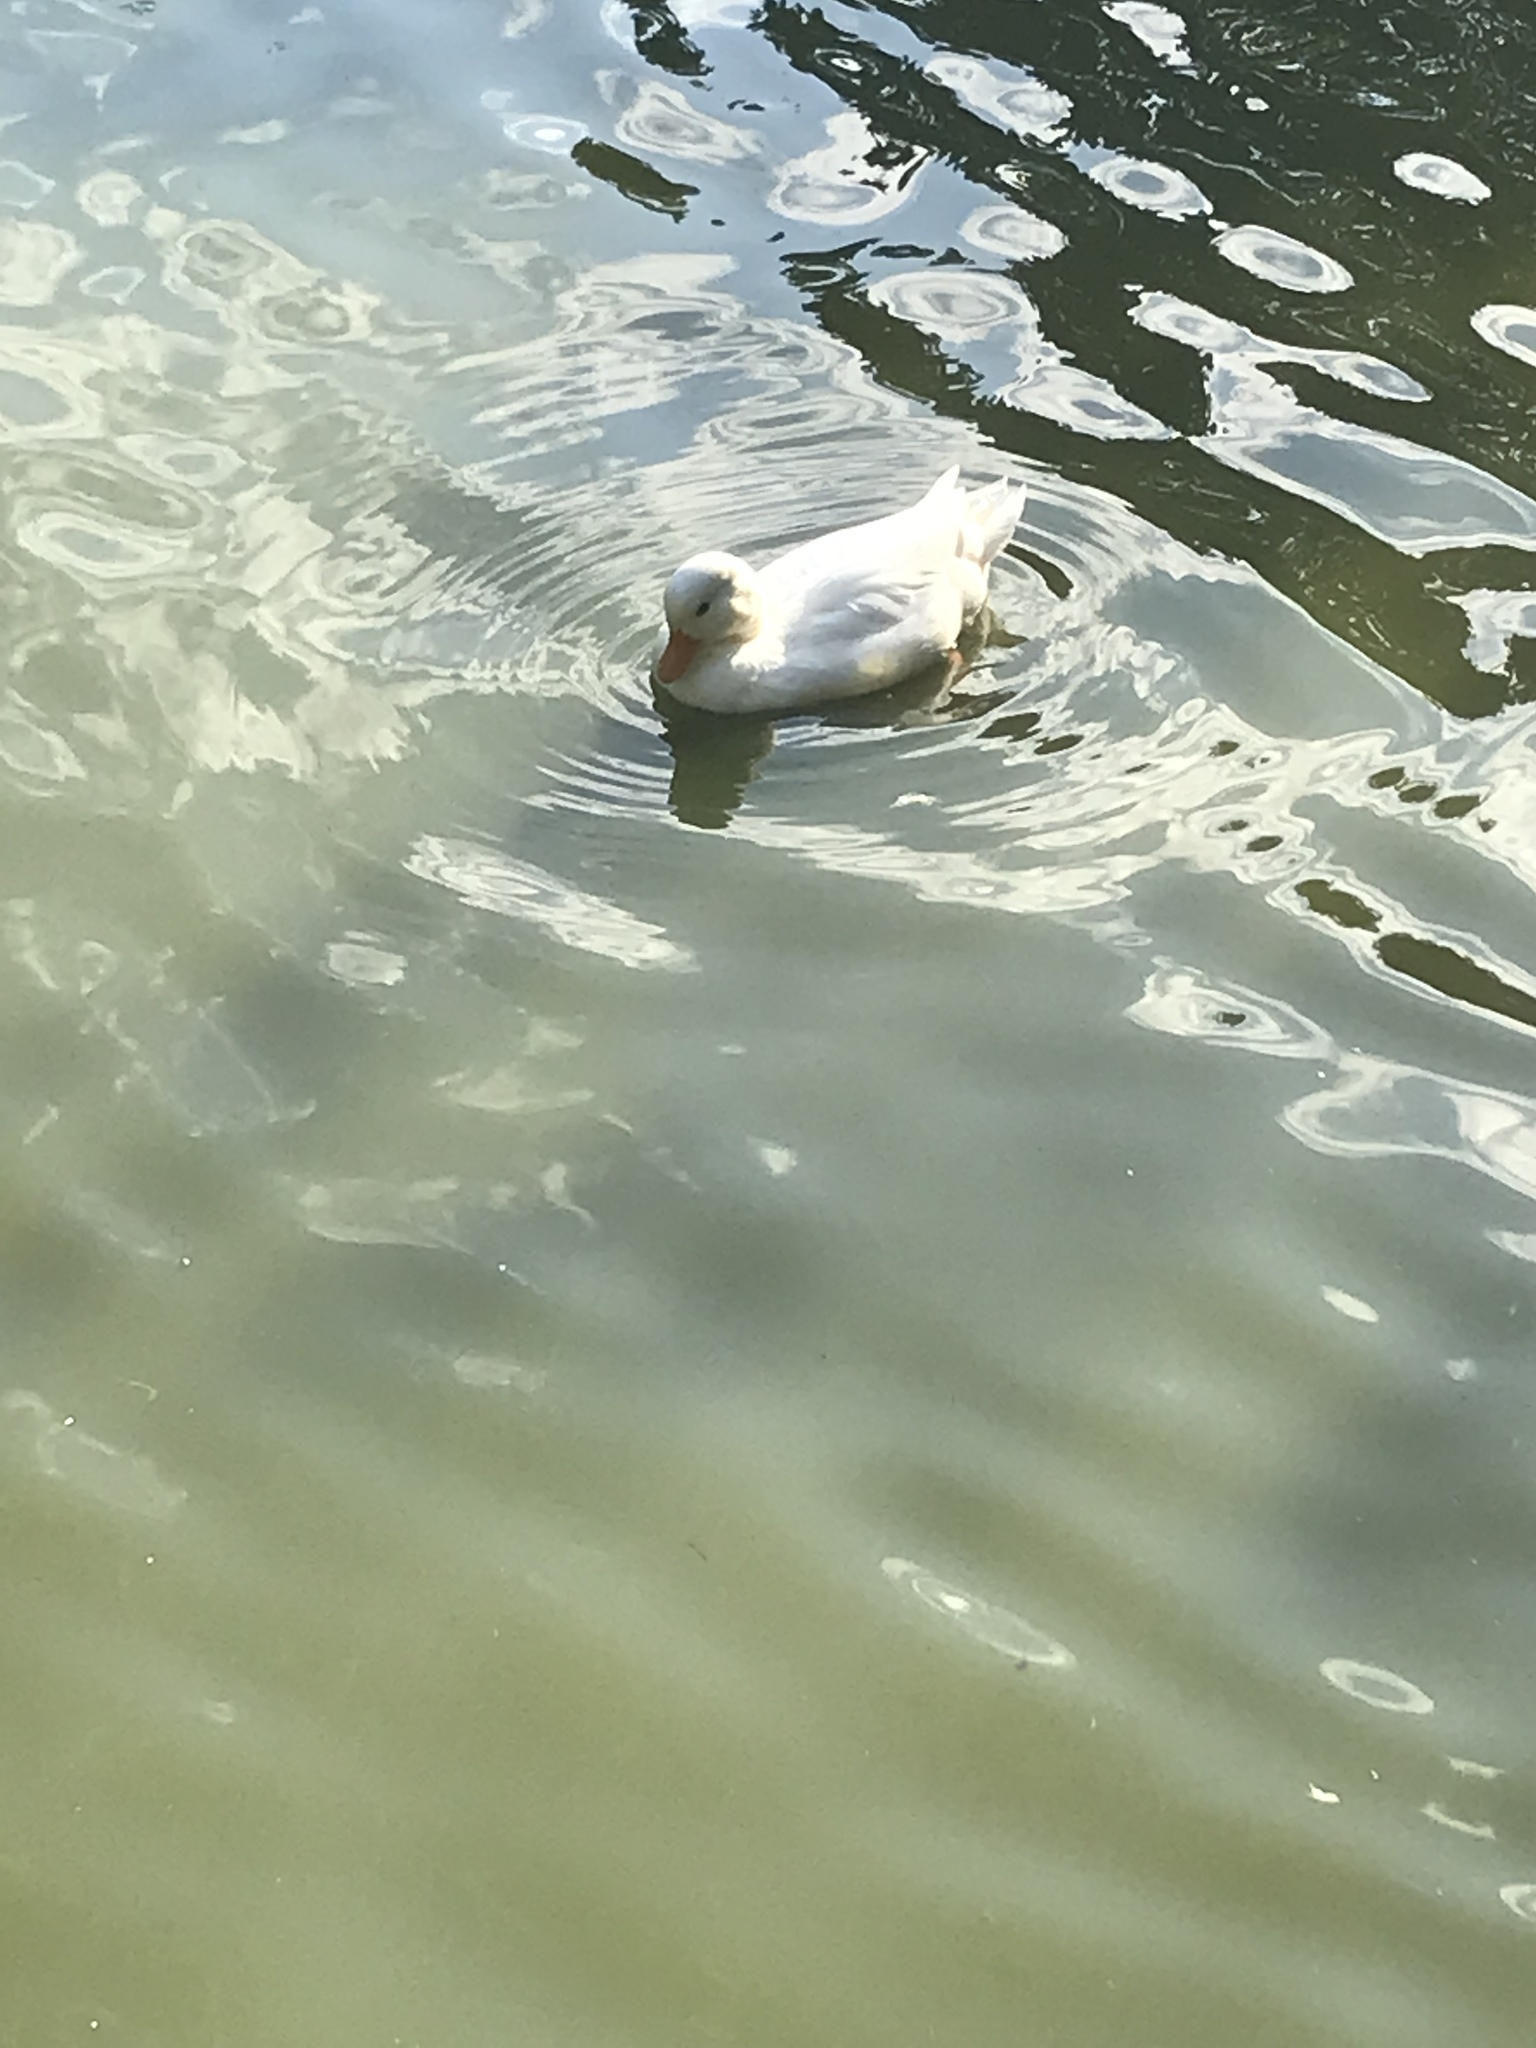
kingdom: Animalia
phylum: Chordata
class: Aves
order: Anseriformes
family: Anatidae
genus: Anas
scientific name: Anas platyrhynchos
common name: Mallard
